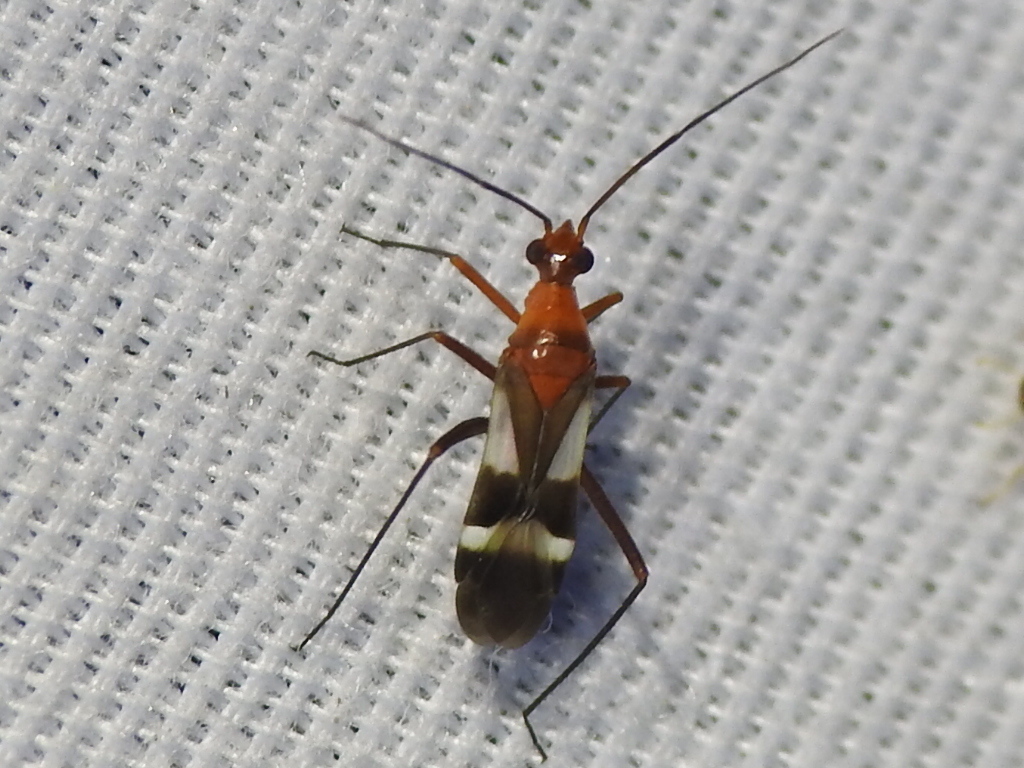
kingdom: Animalia
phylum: Arthropoda
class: Insecta
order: Hemiptera
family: Miridae
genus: Coquillettia
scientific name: Coquillettia venusta
